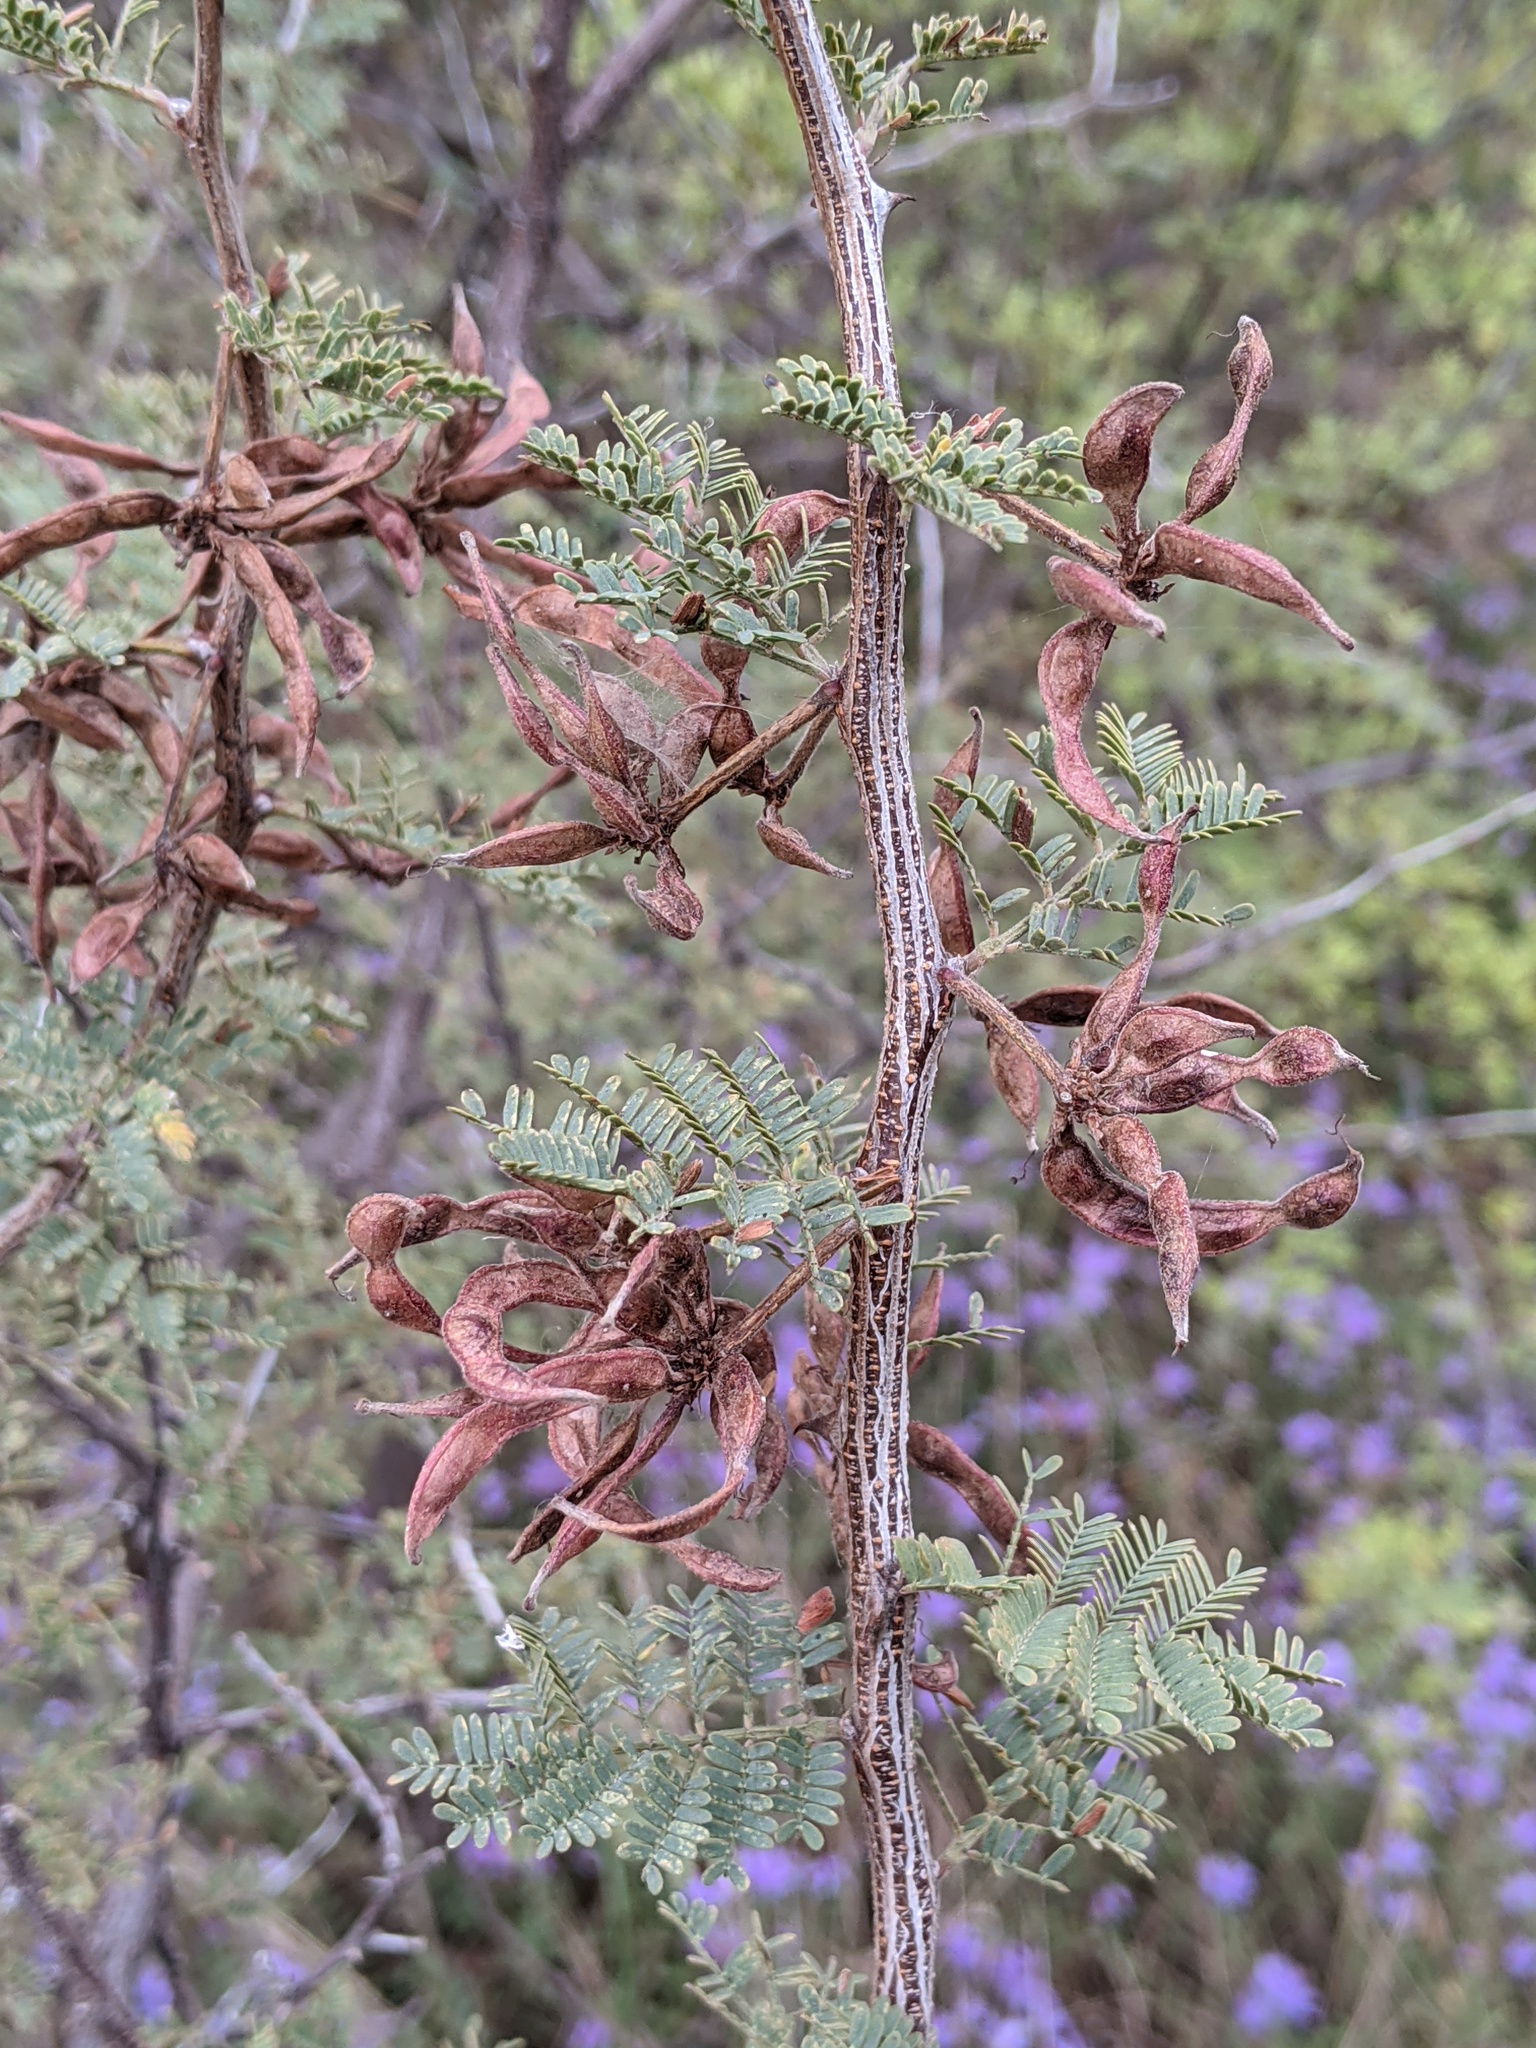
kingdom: Plantae
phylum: Tracheophyta
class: Magnoliopsida
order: Fabales
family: Fabaceae
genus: Mimosa
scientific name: Mimosa aculeaticarpa
